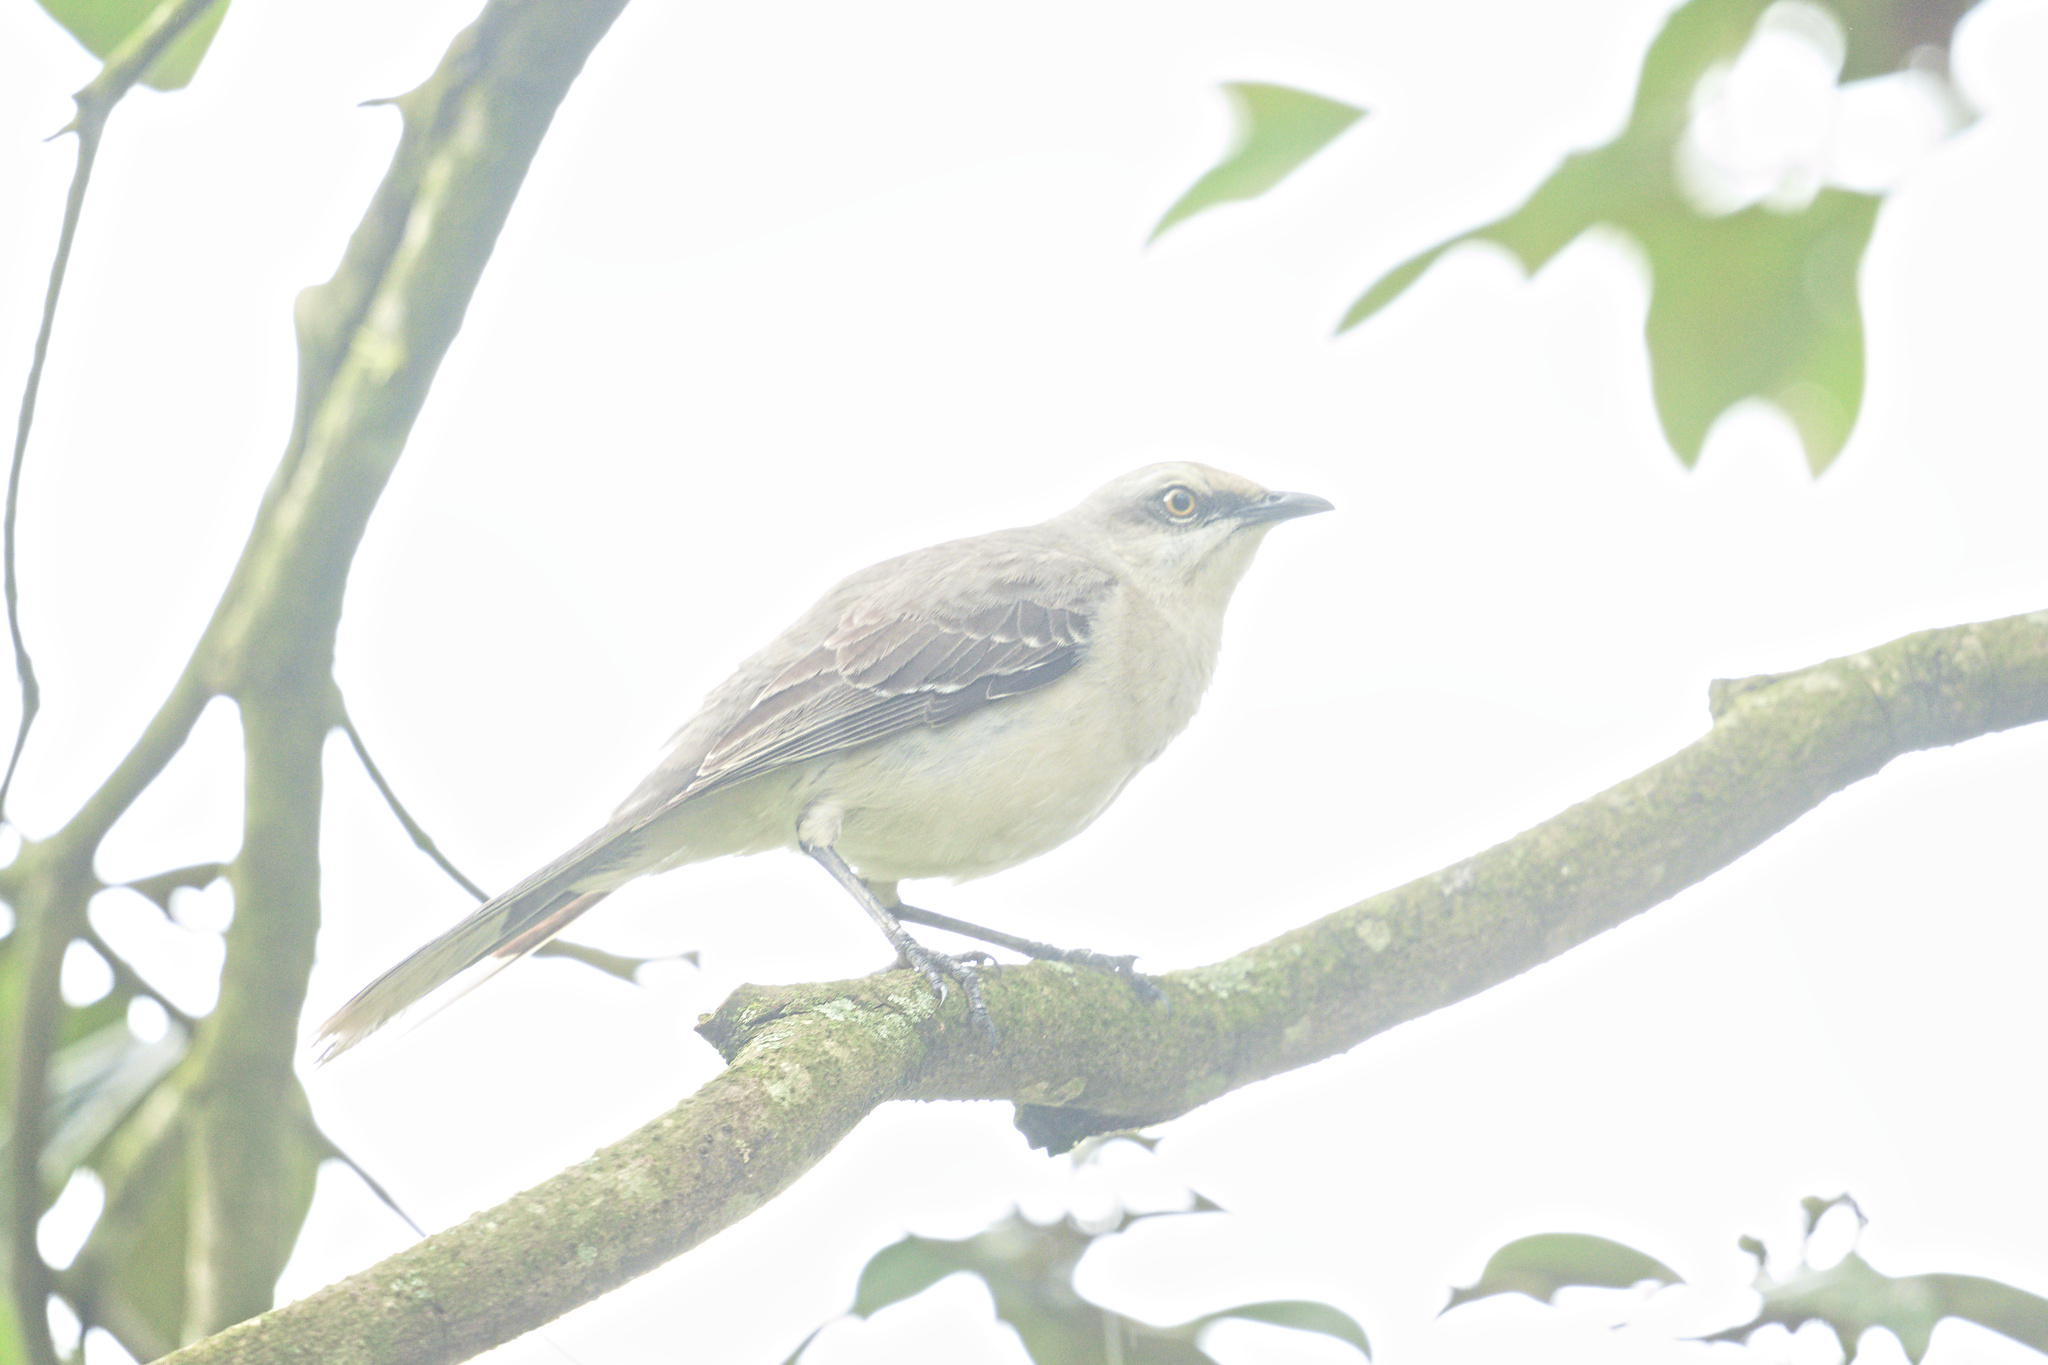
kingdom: Animalia
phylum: Chordata
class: Aves
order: Passeriformes
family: Mimidae
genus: Mimus
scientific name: Mimus gilvus
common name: Tropical mockingbird
